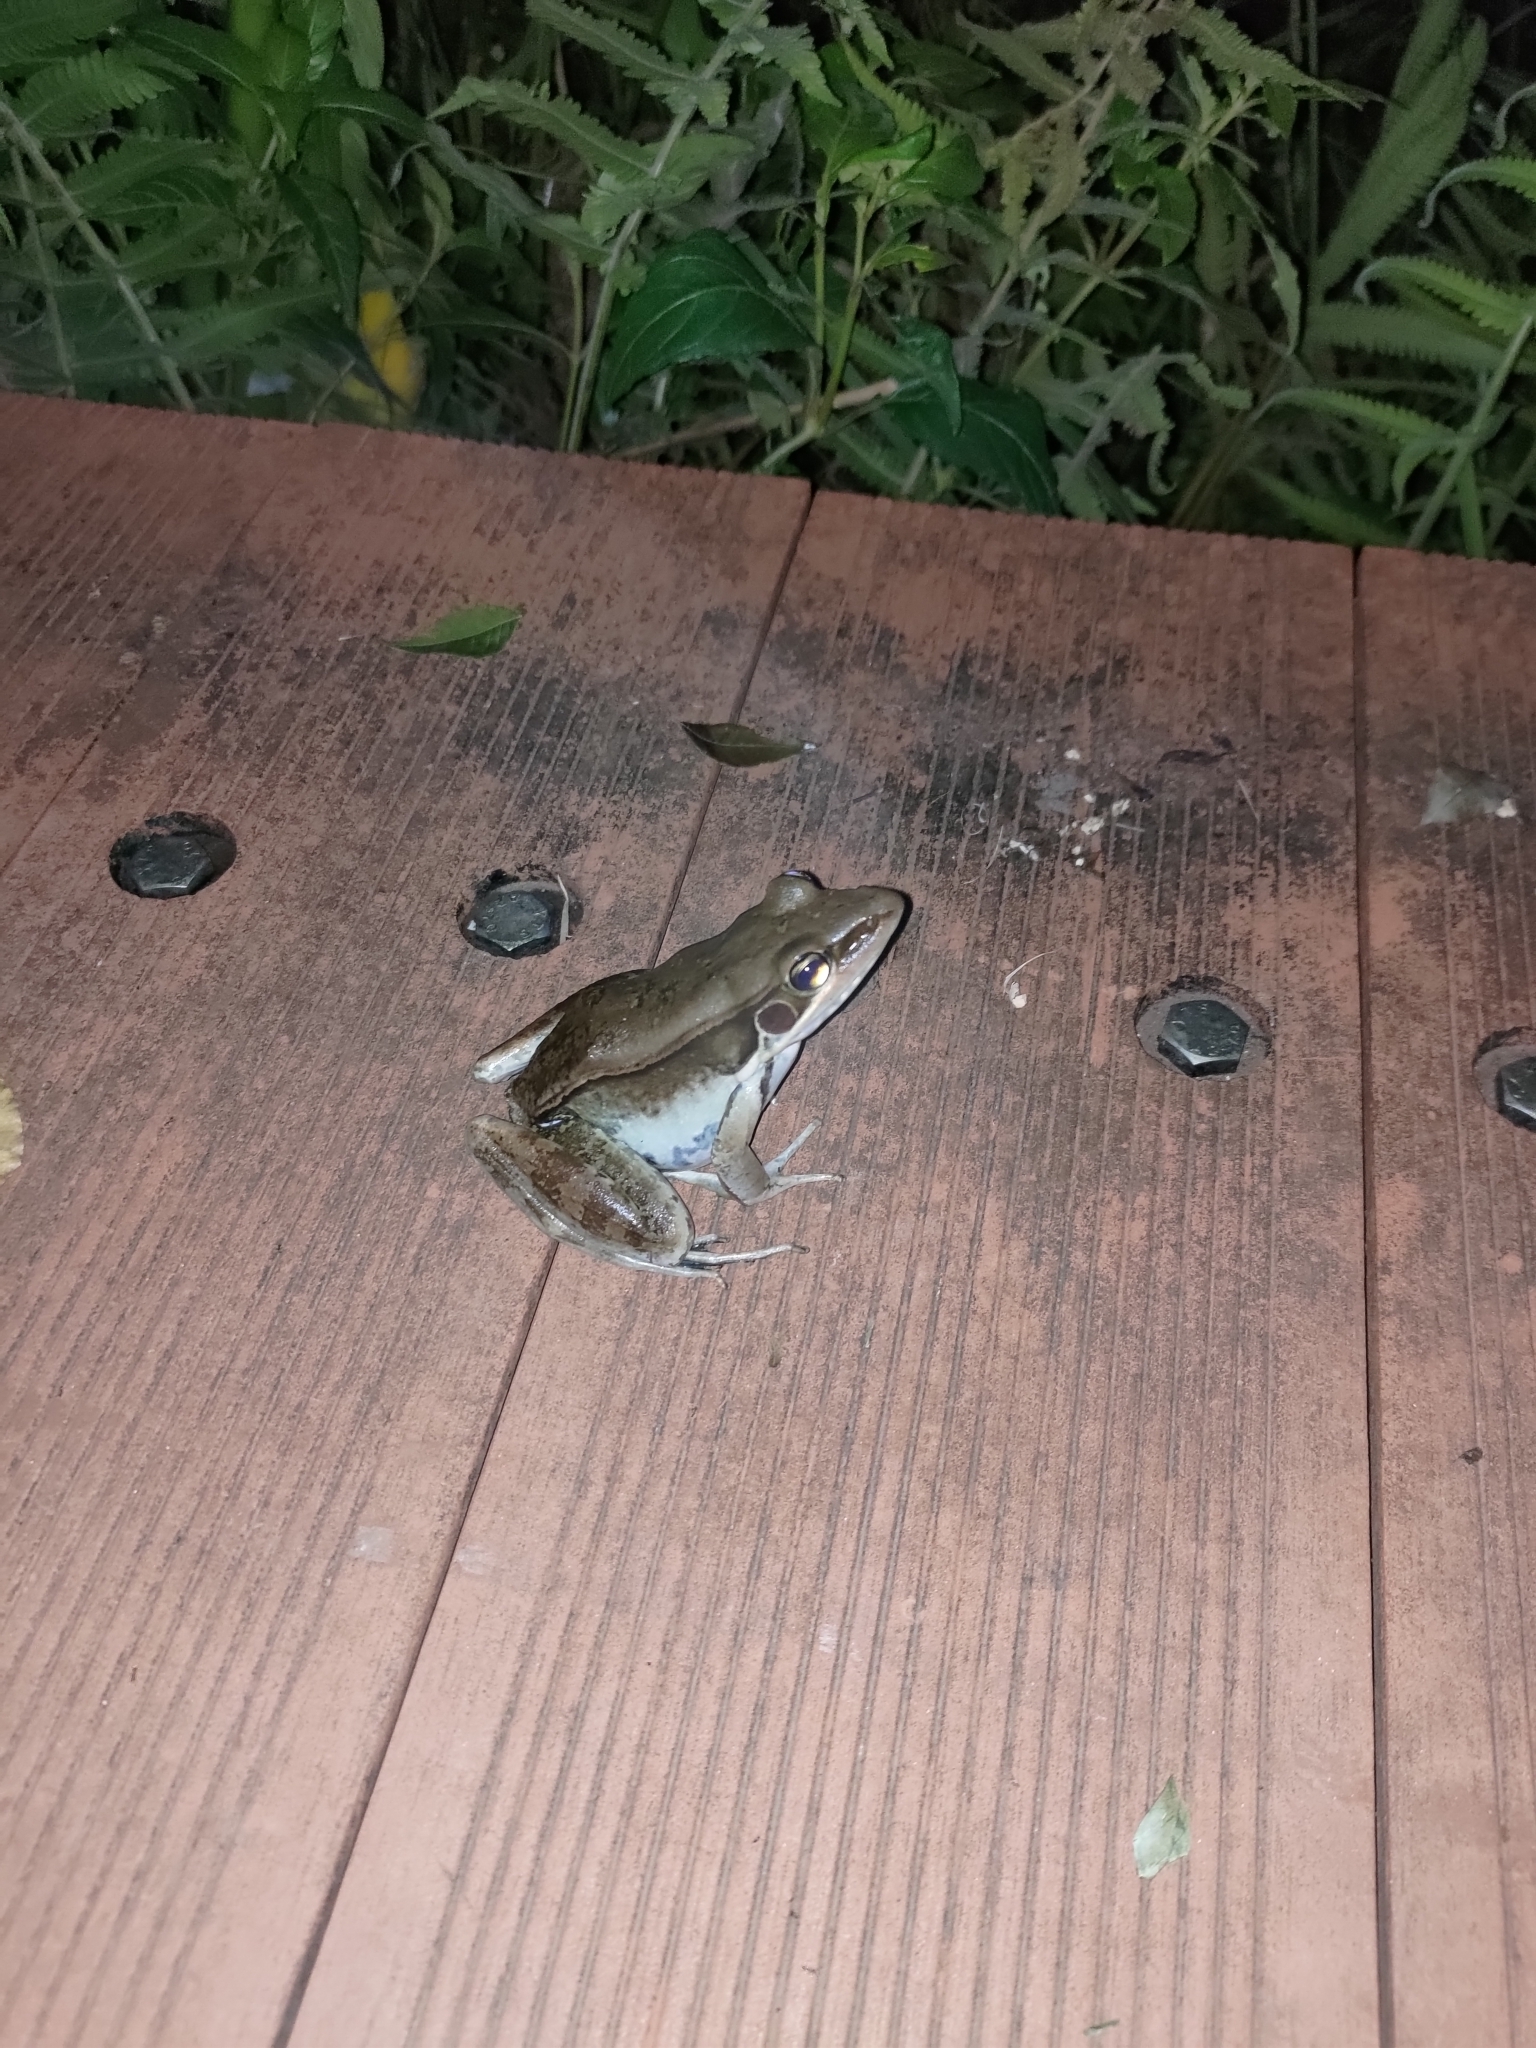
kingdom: Animalia
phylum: Chordata
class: Amphibia
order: Anura
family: Ranidae
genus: Sylvirana
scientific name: Sylvirana guentheri
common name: Guenther's amoy frog
